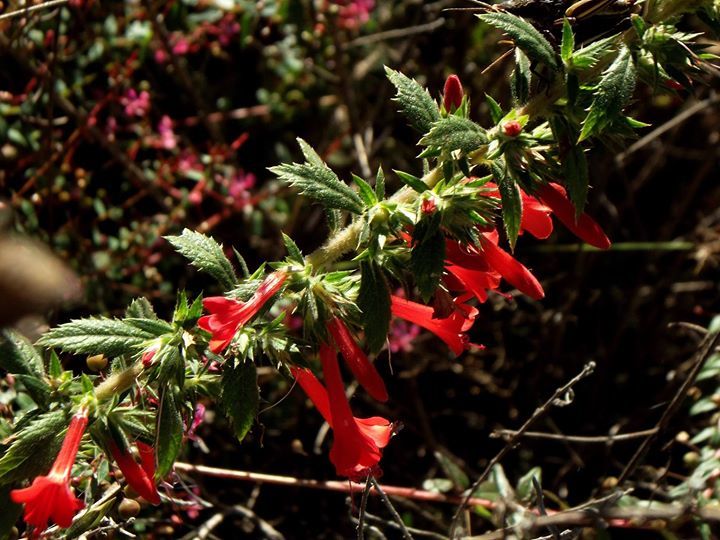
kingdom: Plantae
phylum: Tracheophyta
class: Magnoliopsida
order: Ericales
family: Polemoniaceae
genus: Loeselia
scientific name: Loeselia mexicana
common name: Mexican false calico
